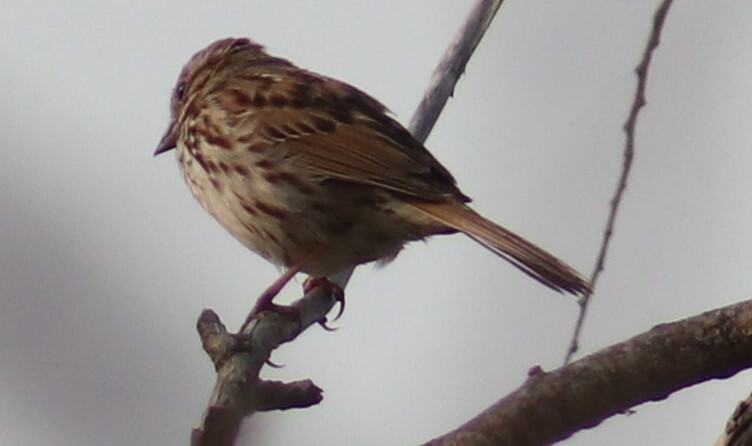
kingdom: Animalia
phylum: Chordata
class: Aves
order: Passeriformes
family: Passerellidae
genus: Melospiza
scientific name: Melospiza melodia
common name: Song sparrow
